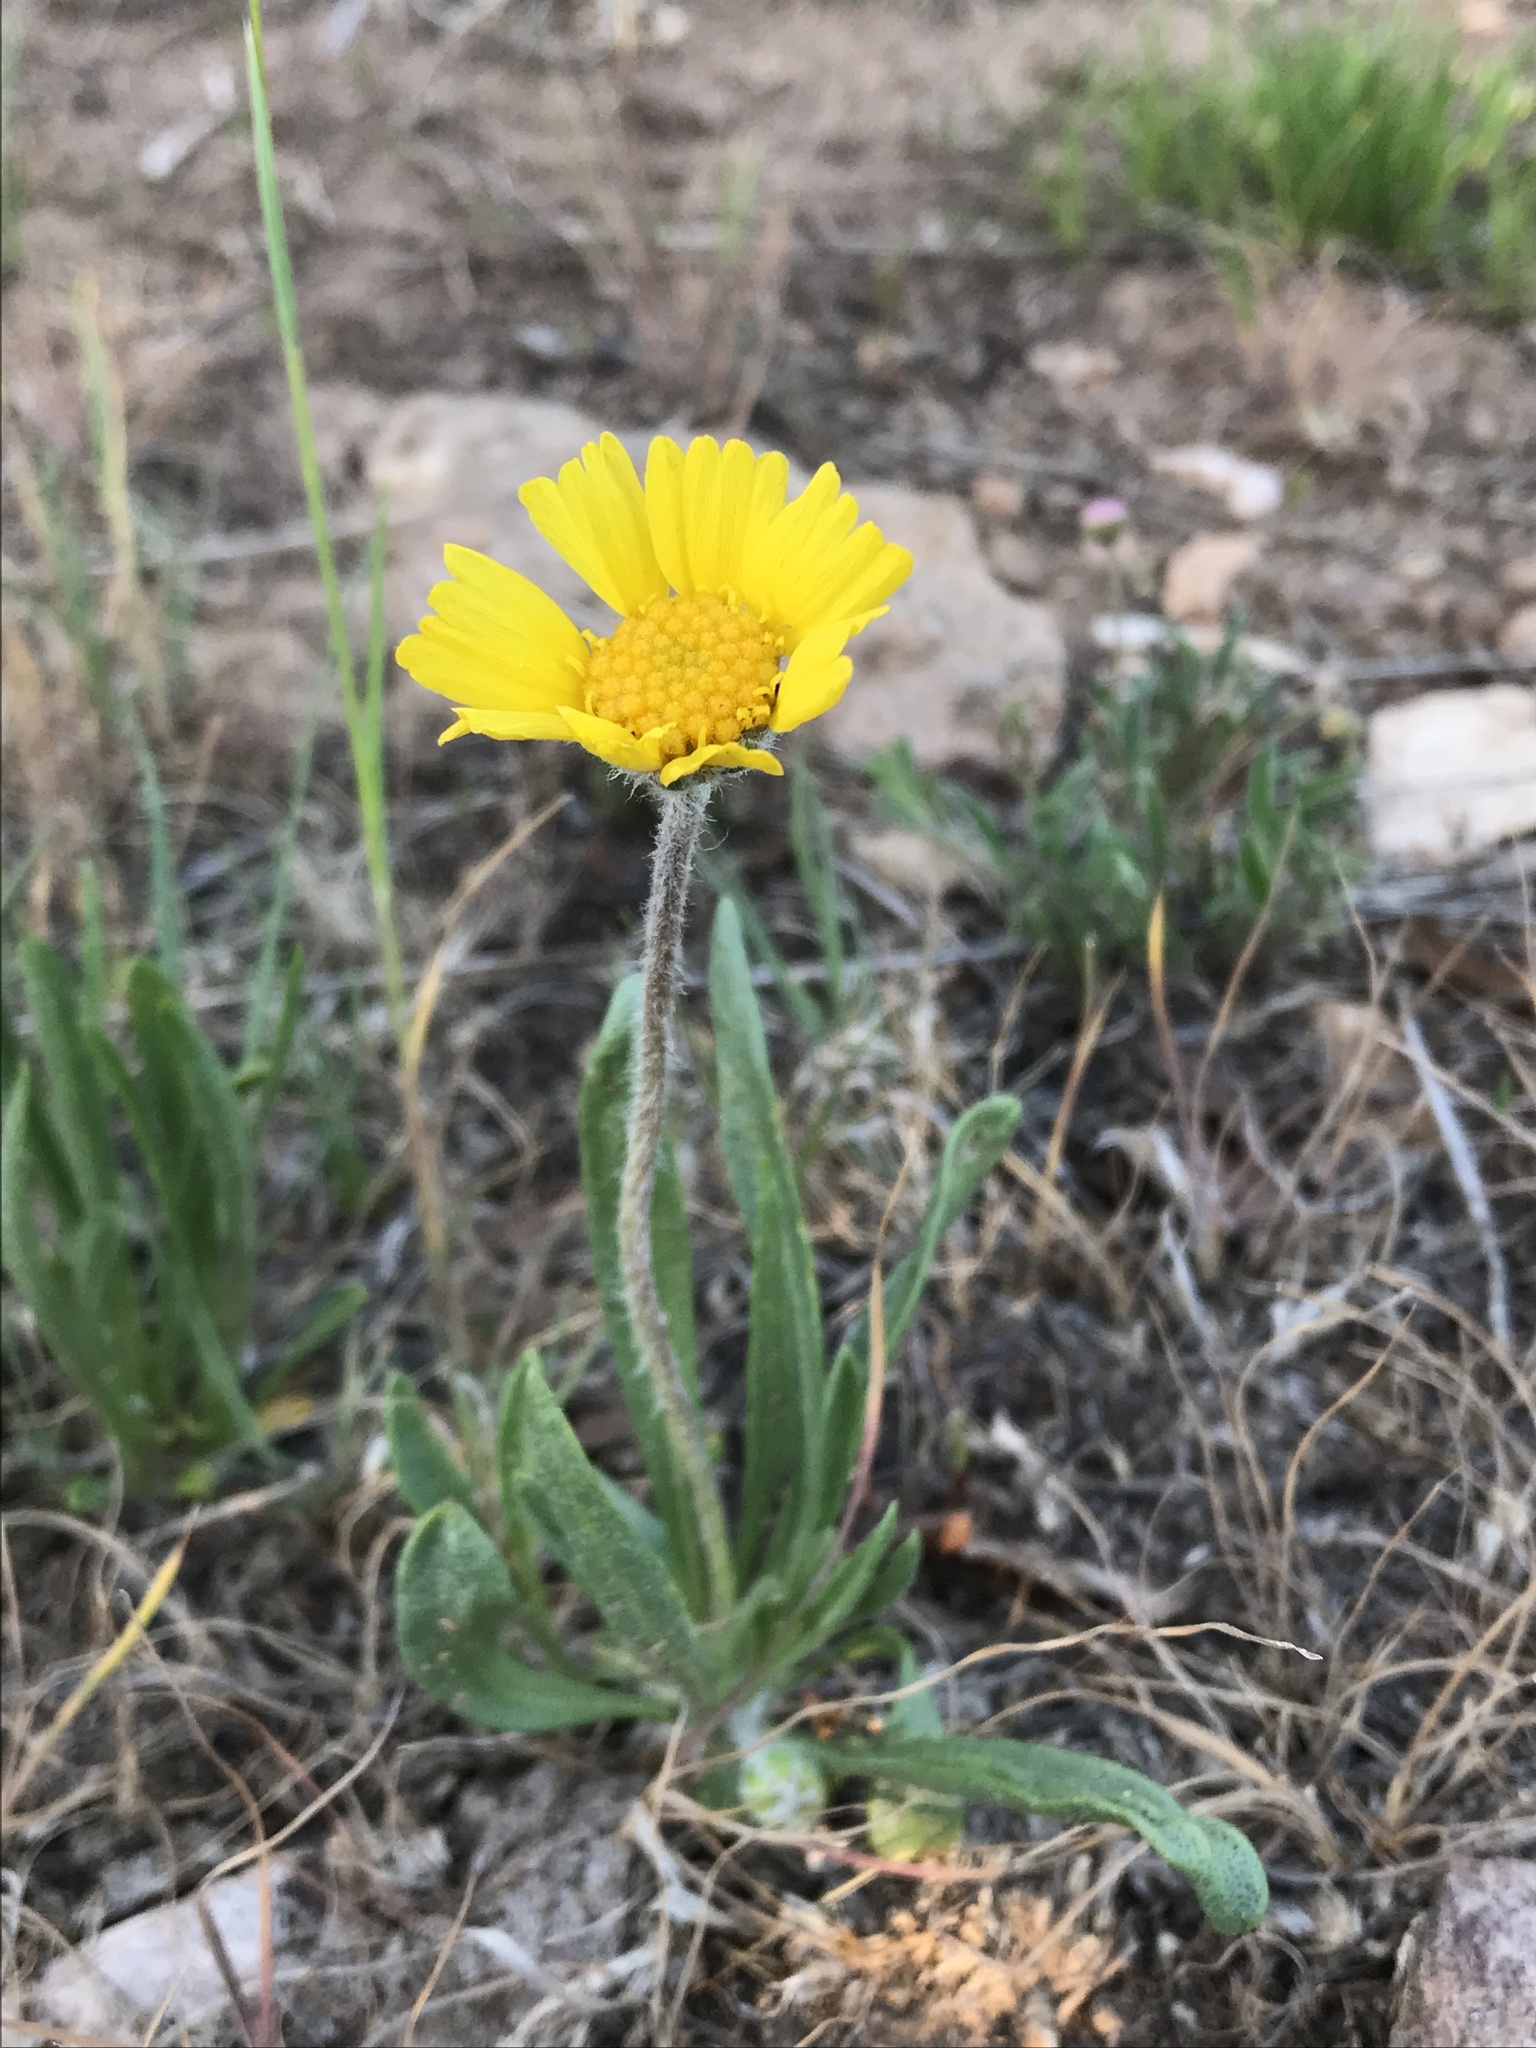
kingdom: Plantae
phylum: Tracheophyta
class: Magnoliopsida
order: Asterales
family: Asteraceae
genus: Tetraneuris
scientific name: Tetraneuris acaulis
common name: Butte marigold
